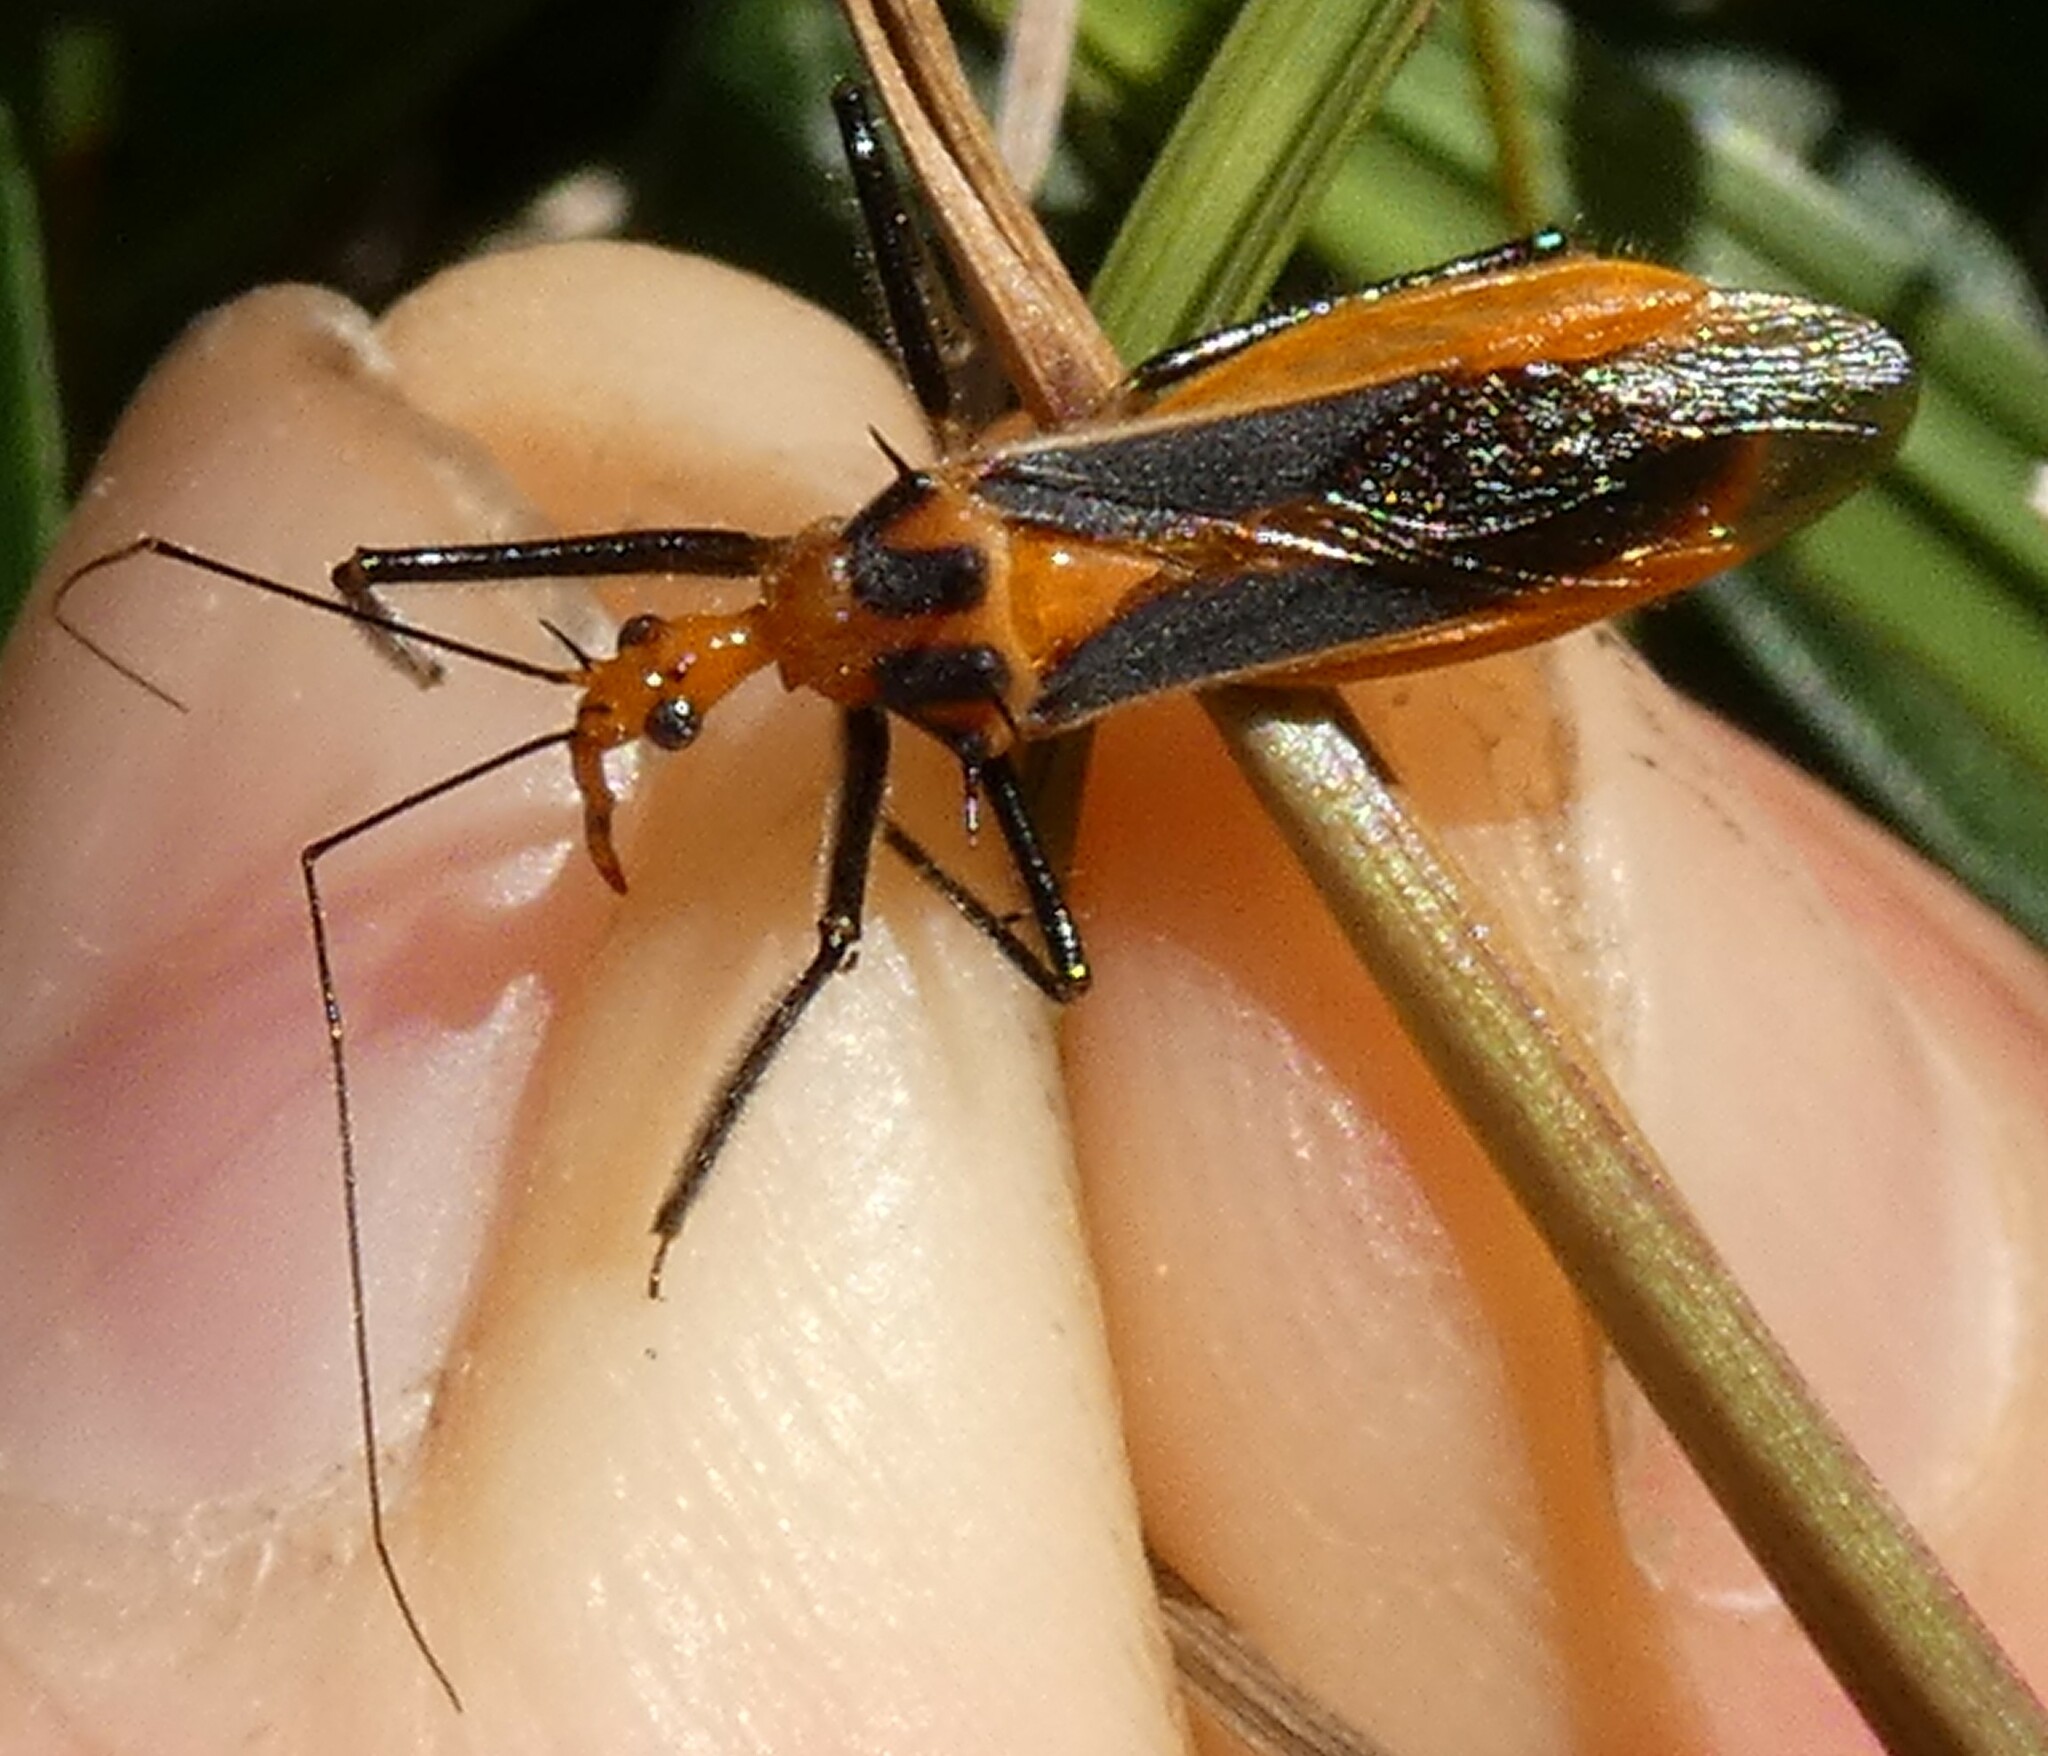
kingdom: Animalia
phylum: Arthropoda
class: Insecta
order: Hemiptera
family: Reduviidae
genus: Repipta
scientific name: Repipta taurus
